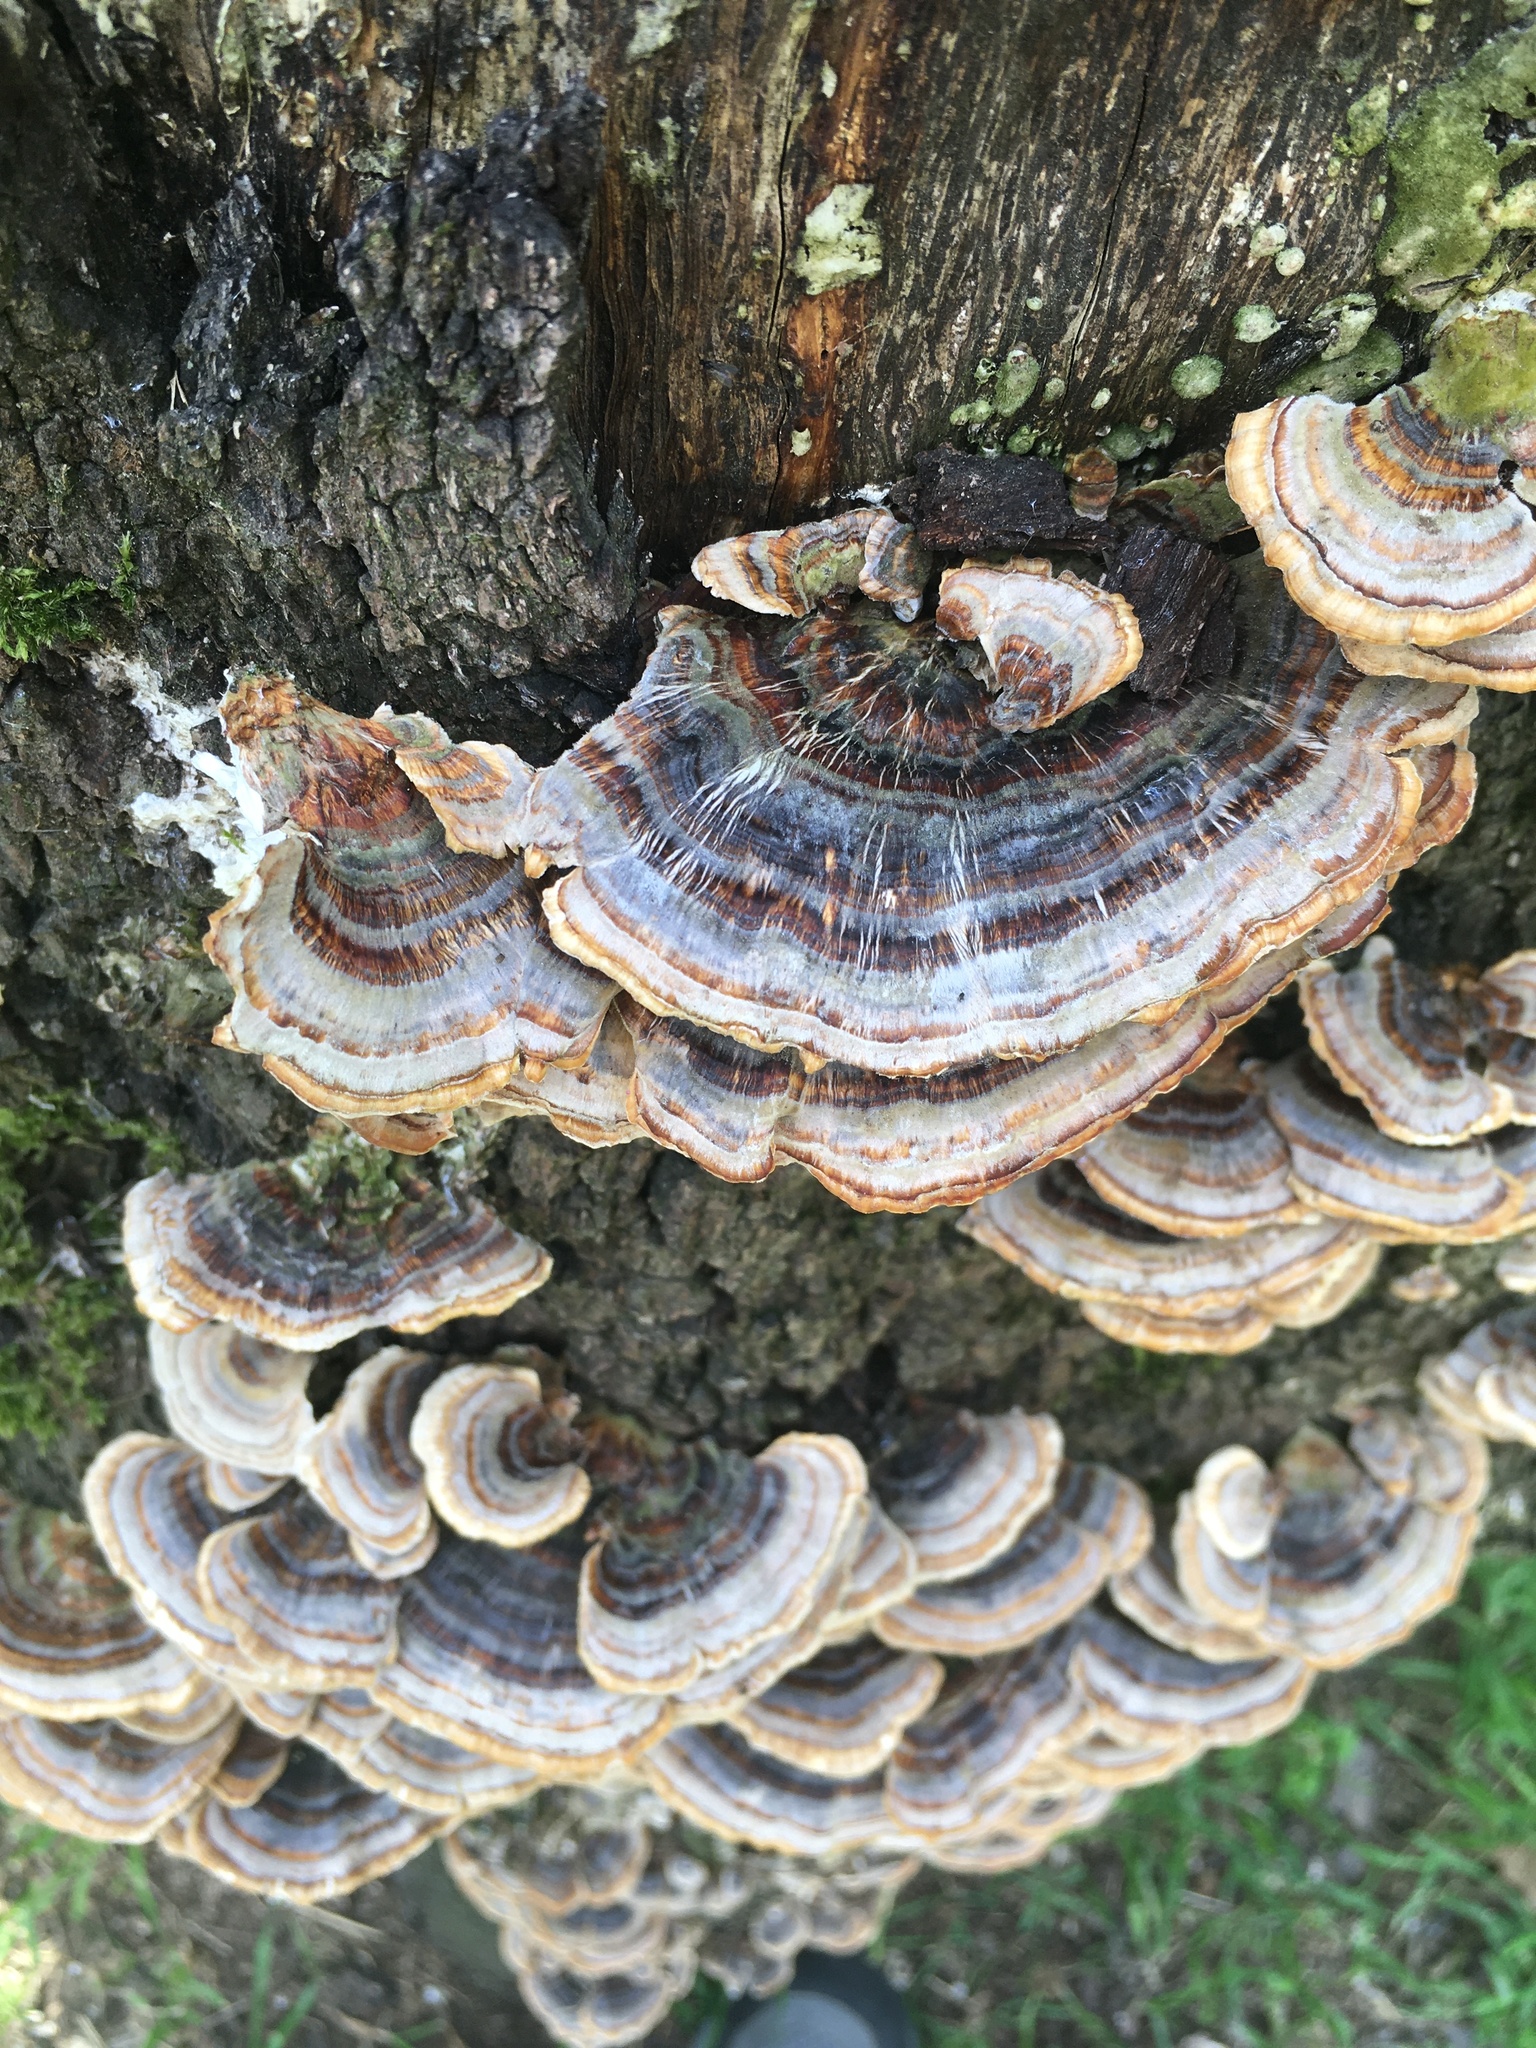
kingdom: Fungi
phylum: Basidiomycota
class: Agaricomycetes
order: Polyporales
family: Polyporaceae
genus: Trametes
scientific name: Trametes versicolor
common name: Turkeytail
